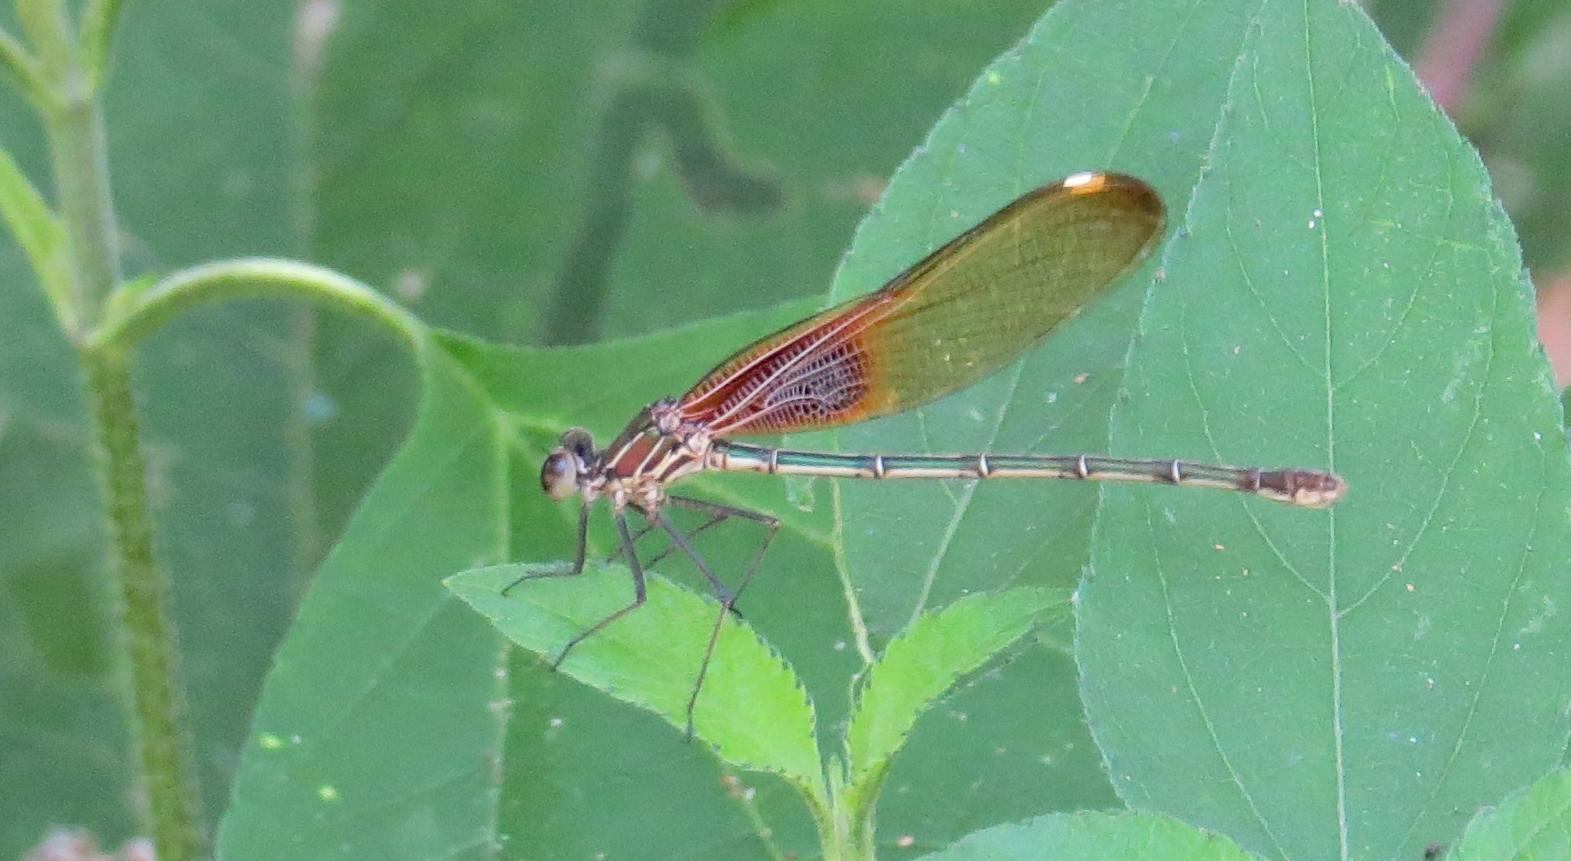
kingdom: Animalia
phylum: Arthropoda
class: Insecta
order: Odonata
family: Calopterygidae
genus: Hetaerina
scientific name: Hetaerina americana
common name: American rubyspot
